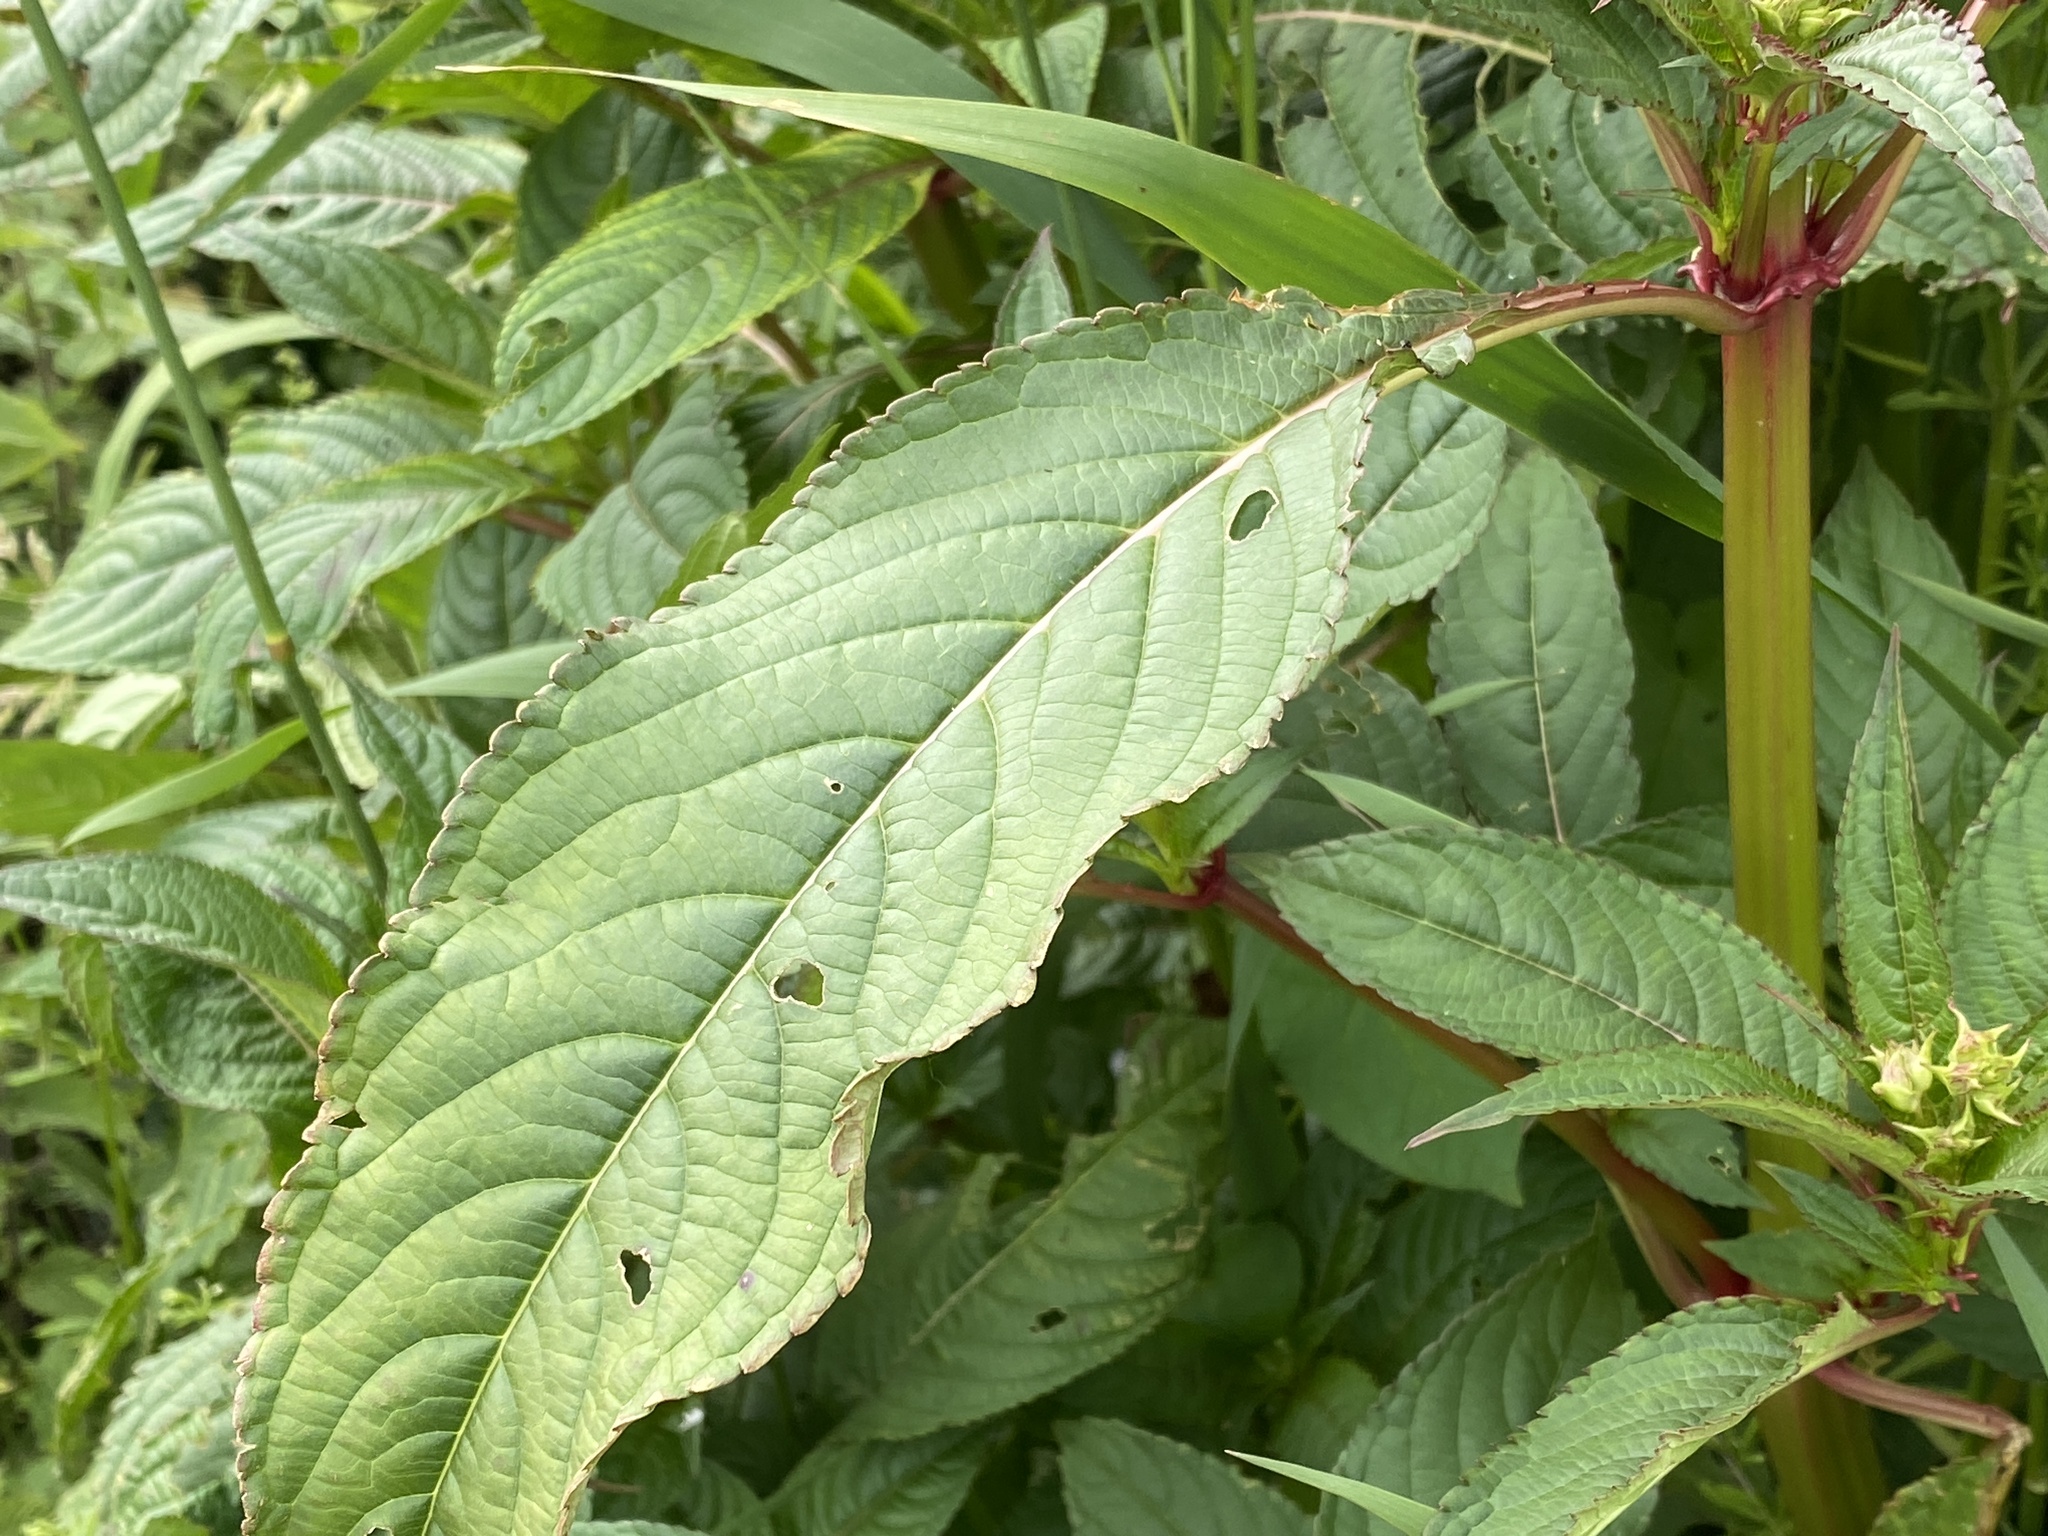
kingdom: Plantae
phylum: Tracheophyta
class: Magnoliopsida
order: Ericales
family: Balsaminaceae
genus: Impatiens
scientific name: Impatiens glandulifera
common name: Himalayan balsam
